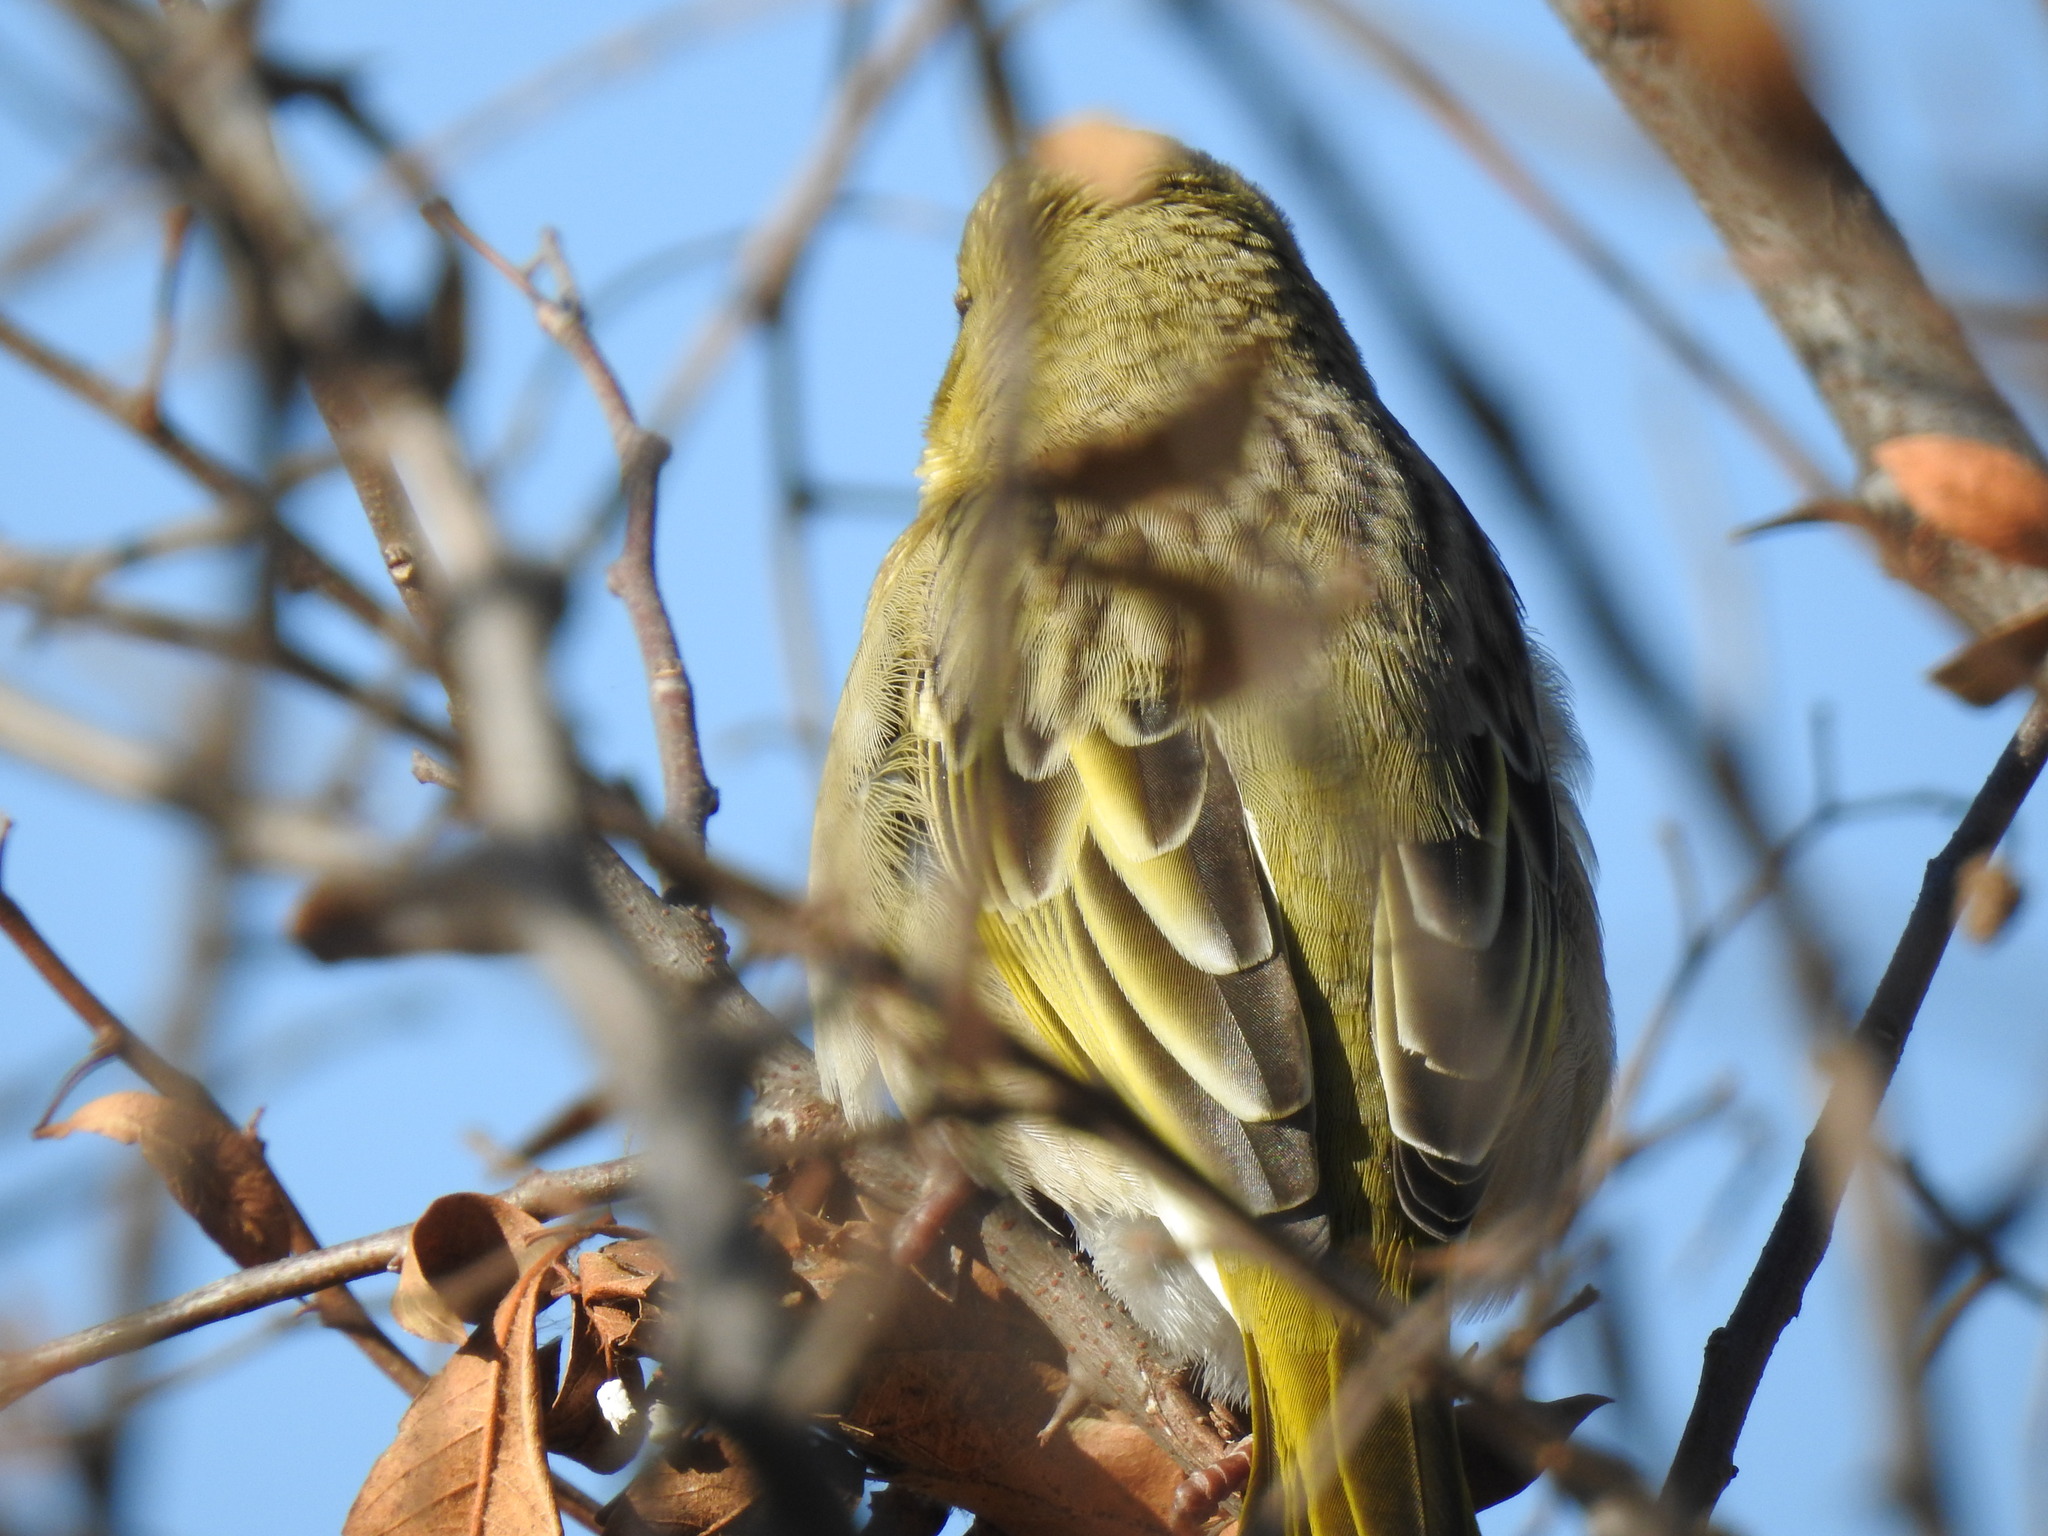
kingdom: Animalia
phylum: Chordata
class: Aves
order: Passeriformes
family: Ploceidae
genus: Ploceus
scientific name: Ploceus velatus
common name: Southern masked weaver
